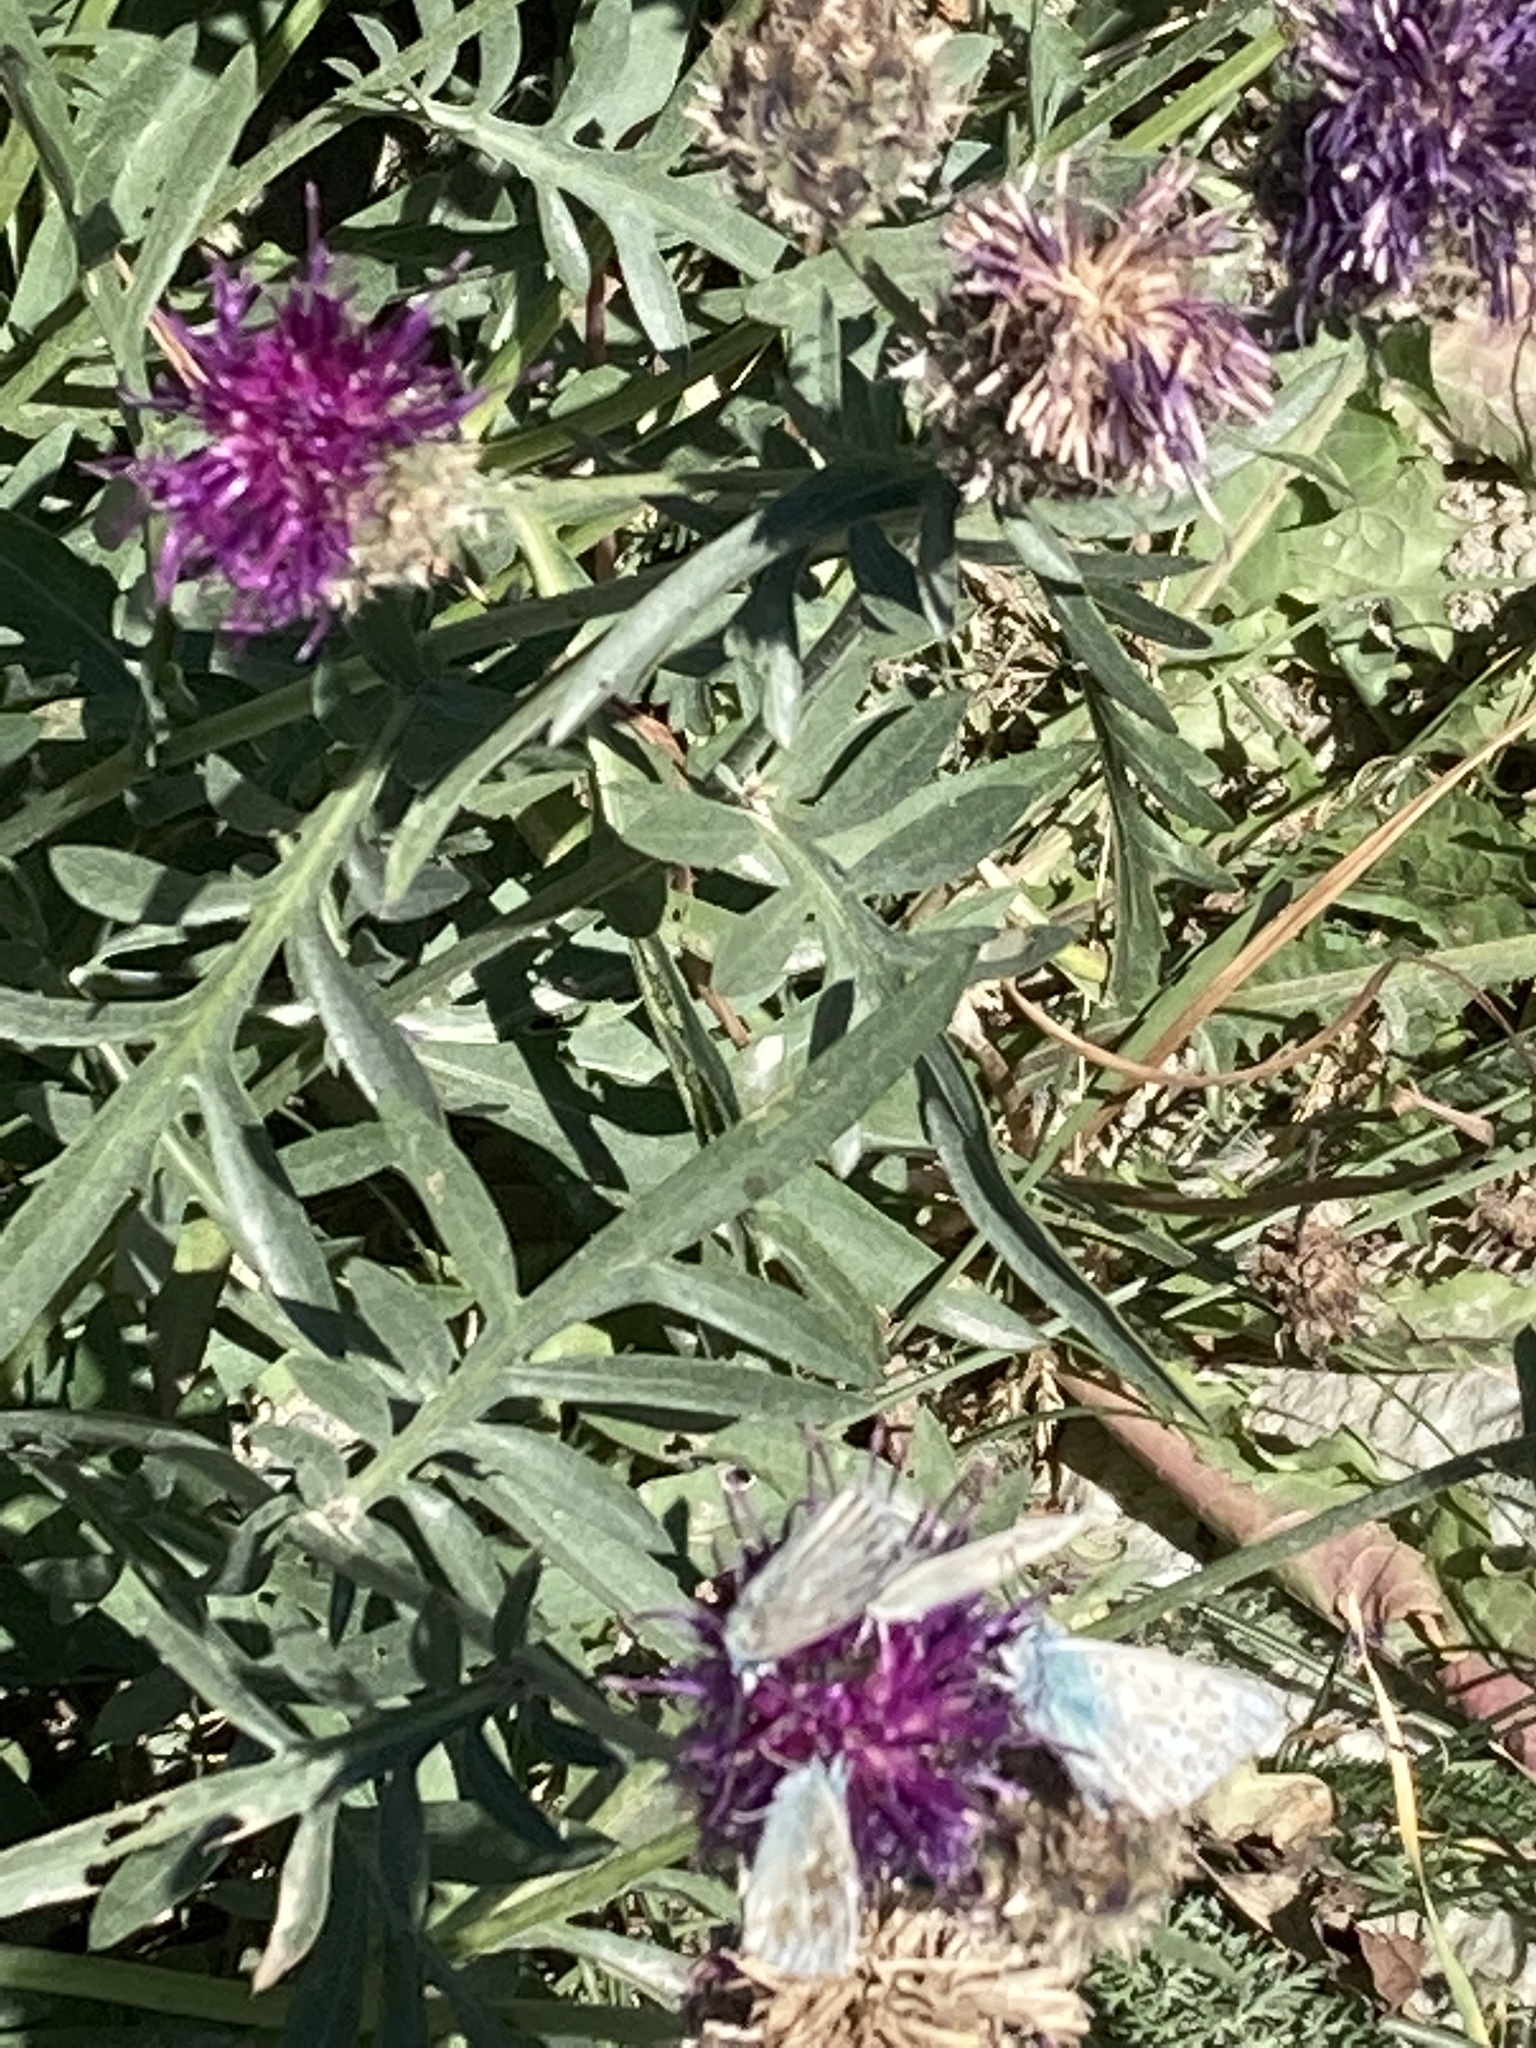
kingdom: Plantae
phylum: Tracheophyta
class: Magnoliopsida
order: Asterales
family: Asteraceae
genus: Centaurea
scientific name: Centaurea scabiosa
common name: Greater knapweed
